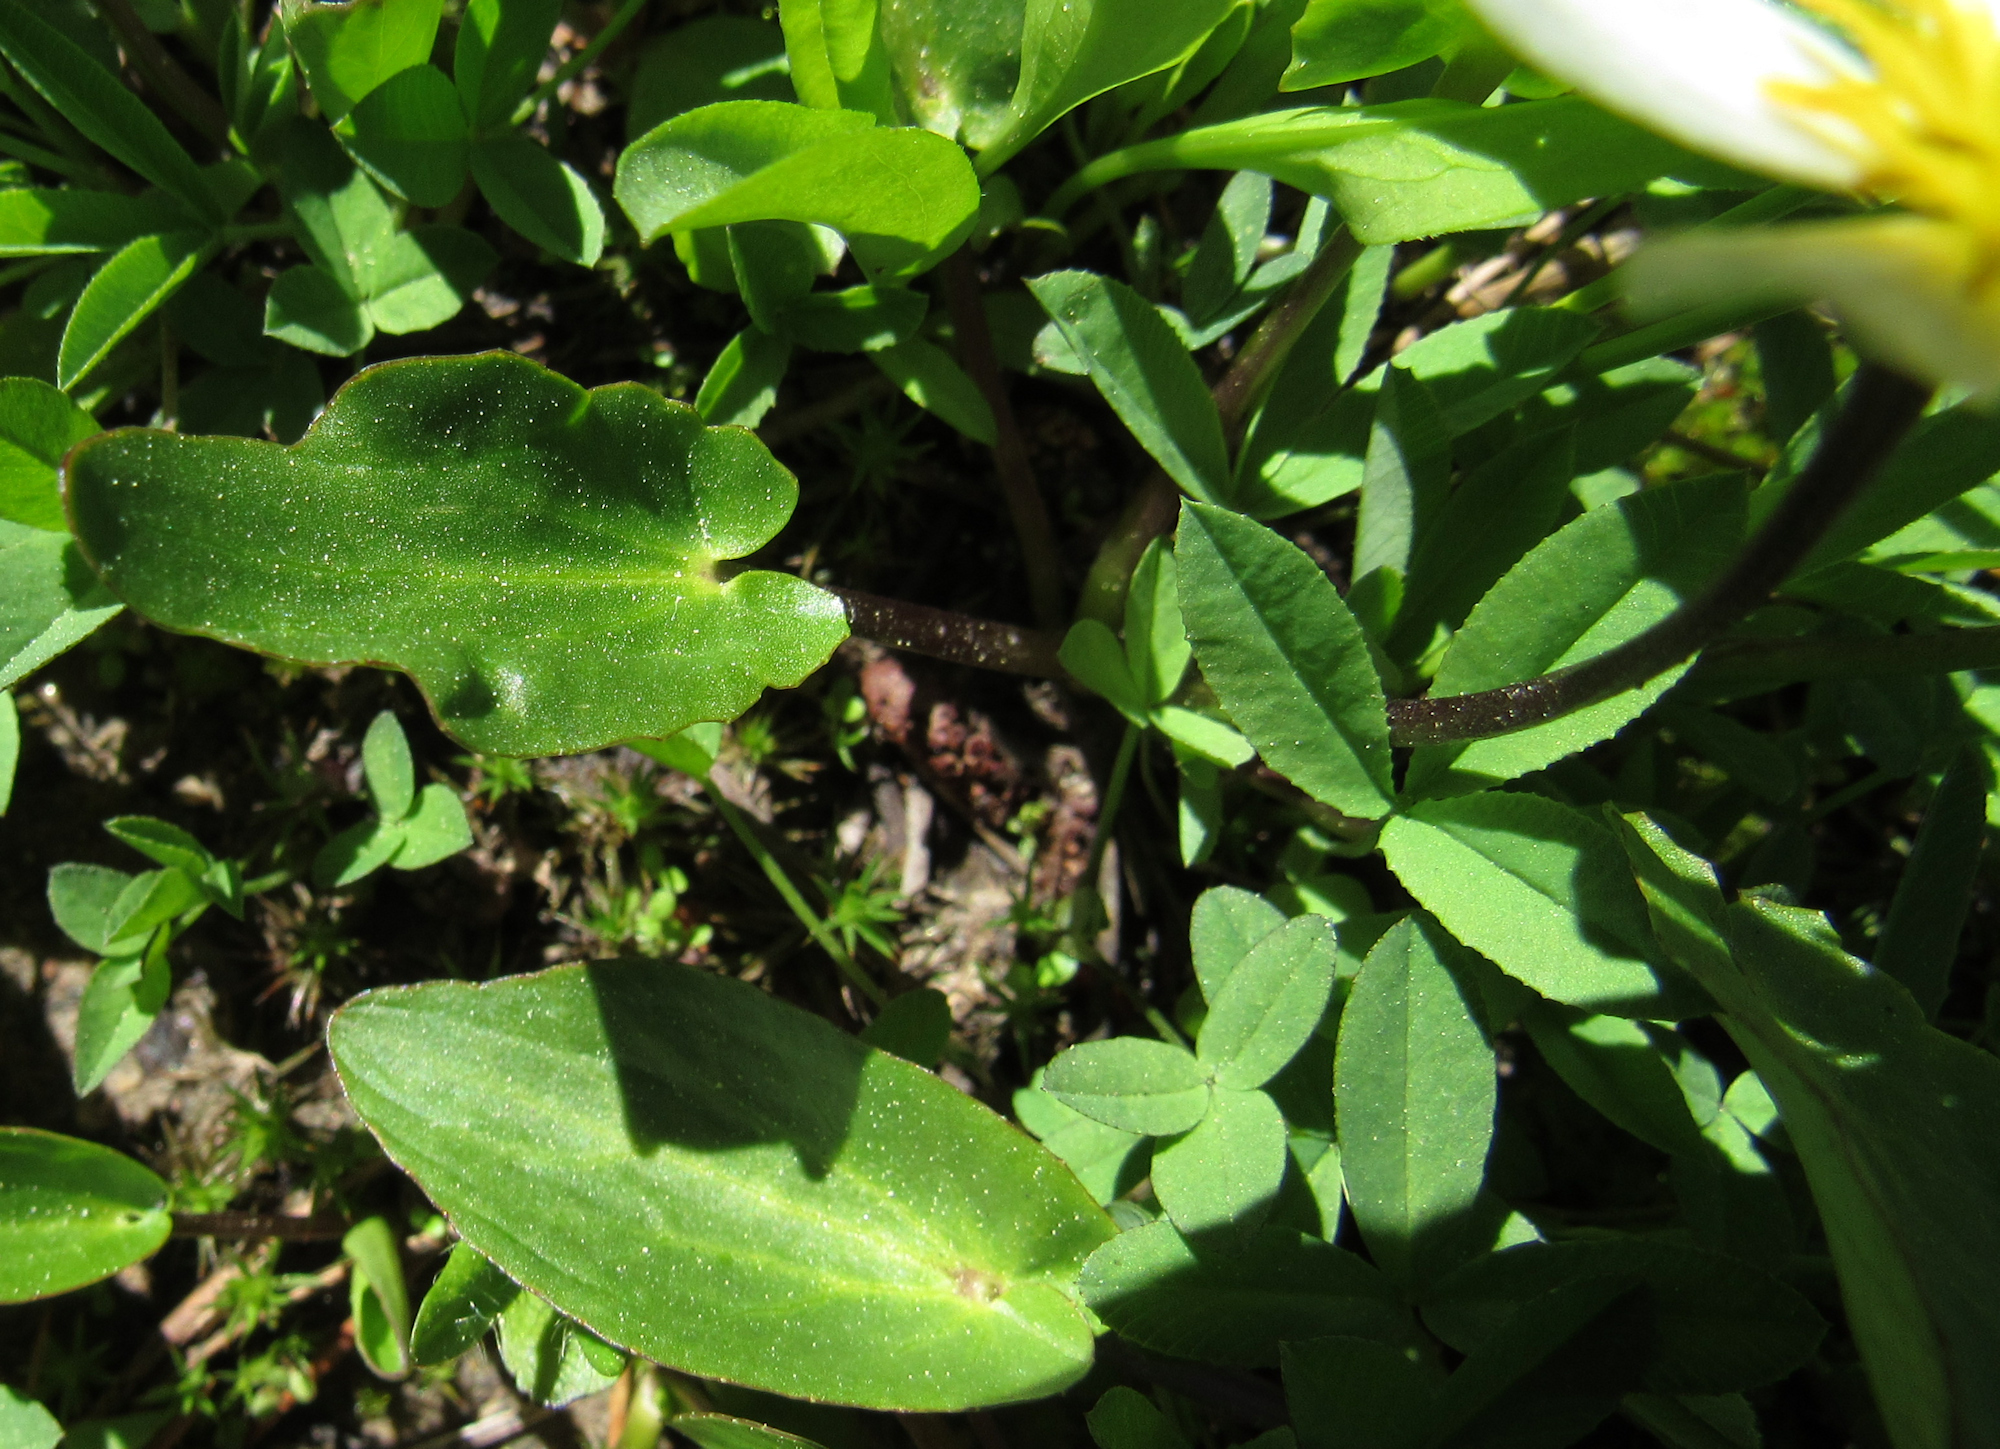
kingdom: Plantae
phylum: Tracheophyta
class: Magnoliopsida
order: Ranunculales
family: Ranunculaceae
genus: Caltha
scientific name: Caltha leptosepala
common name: Elkslip
